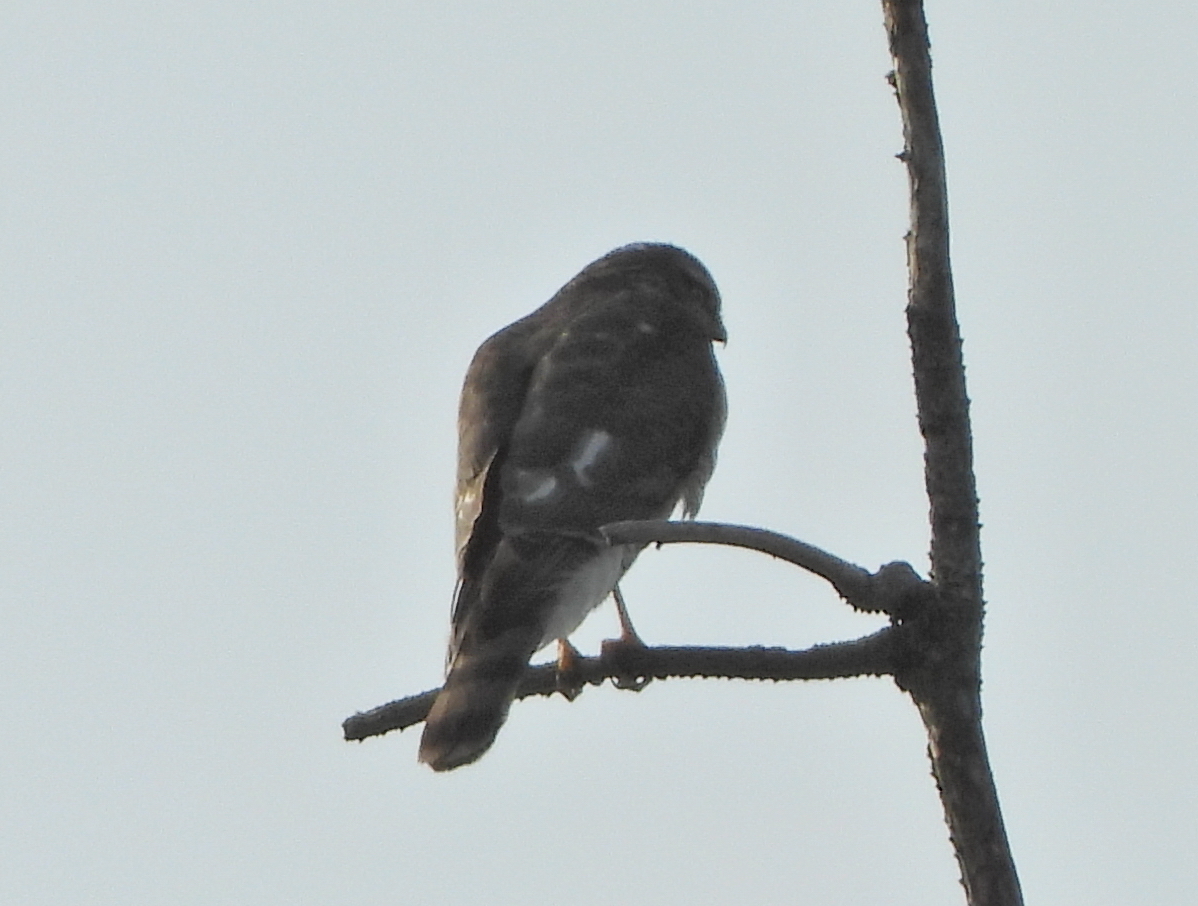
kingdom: Animalia
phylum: Chordata
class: Aves
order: Accipitriformes
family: Accipitridae
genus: Accipiter
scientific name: Accipiter nisus
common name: Eurasian sparrowhawk
